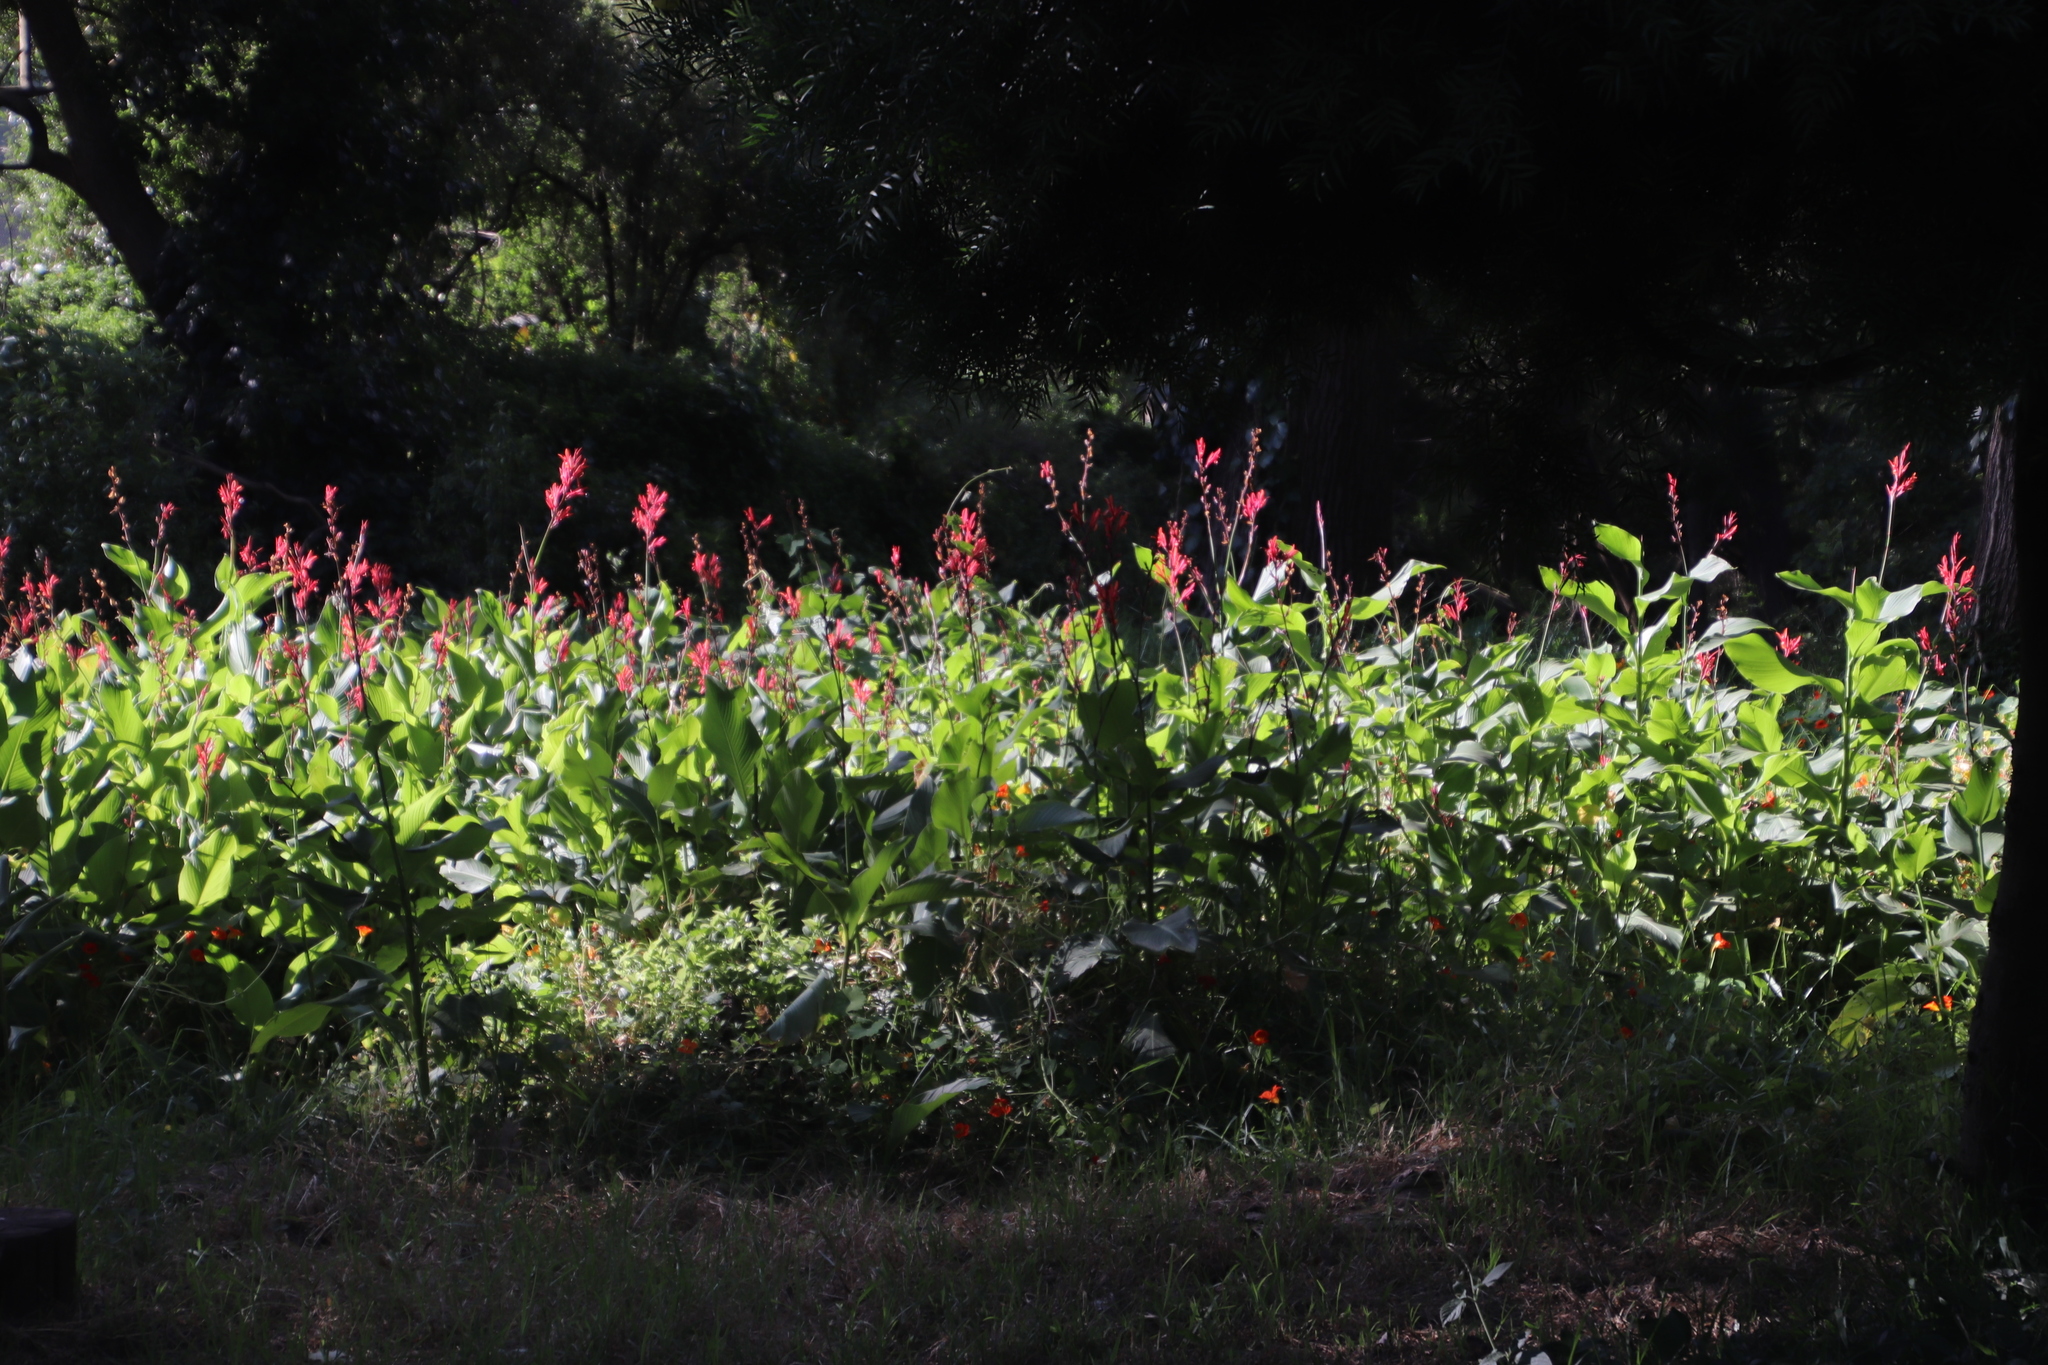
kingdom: Plantae
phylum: Tracheophyta
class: Liliopsida
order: Zingiberales
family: Cannaceae
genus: Canna
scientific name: Canna indica
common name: Indian shot
